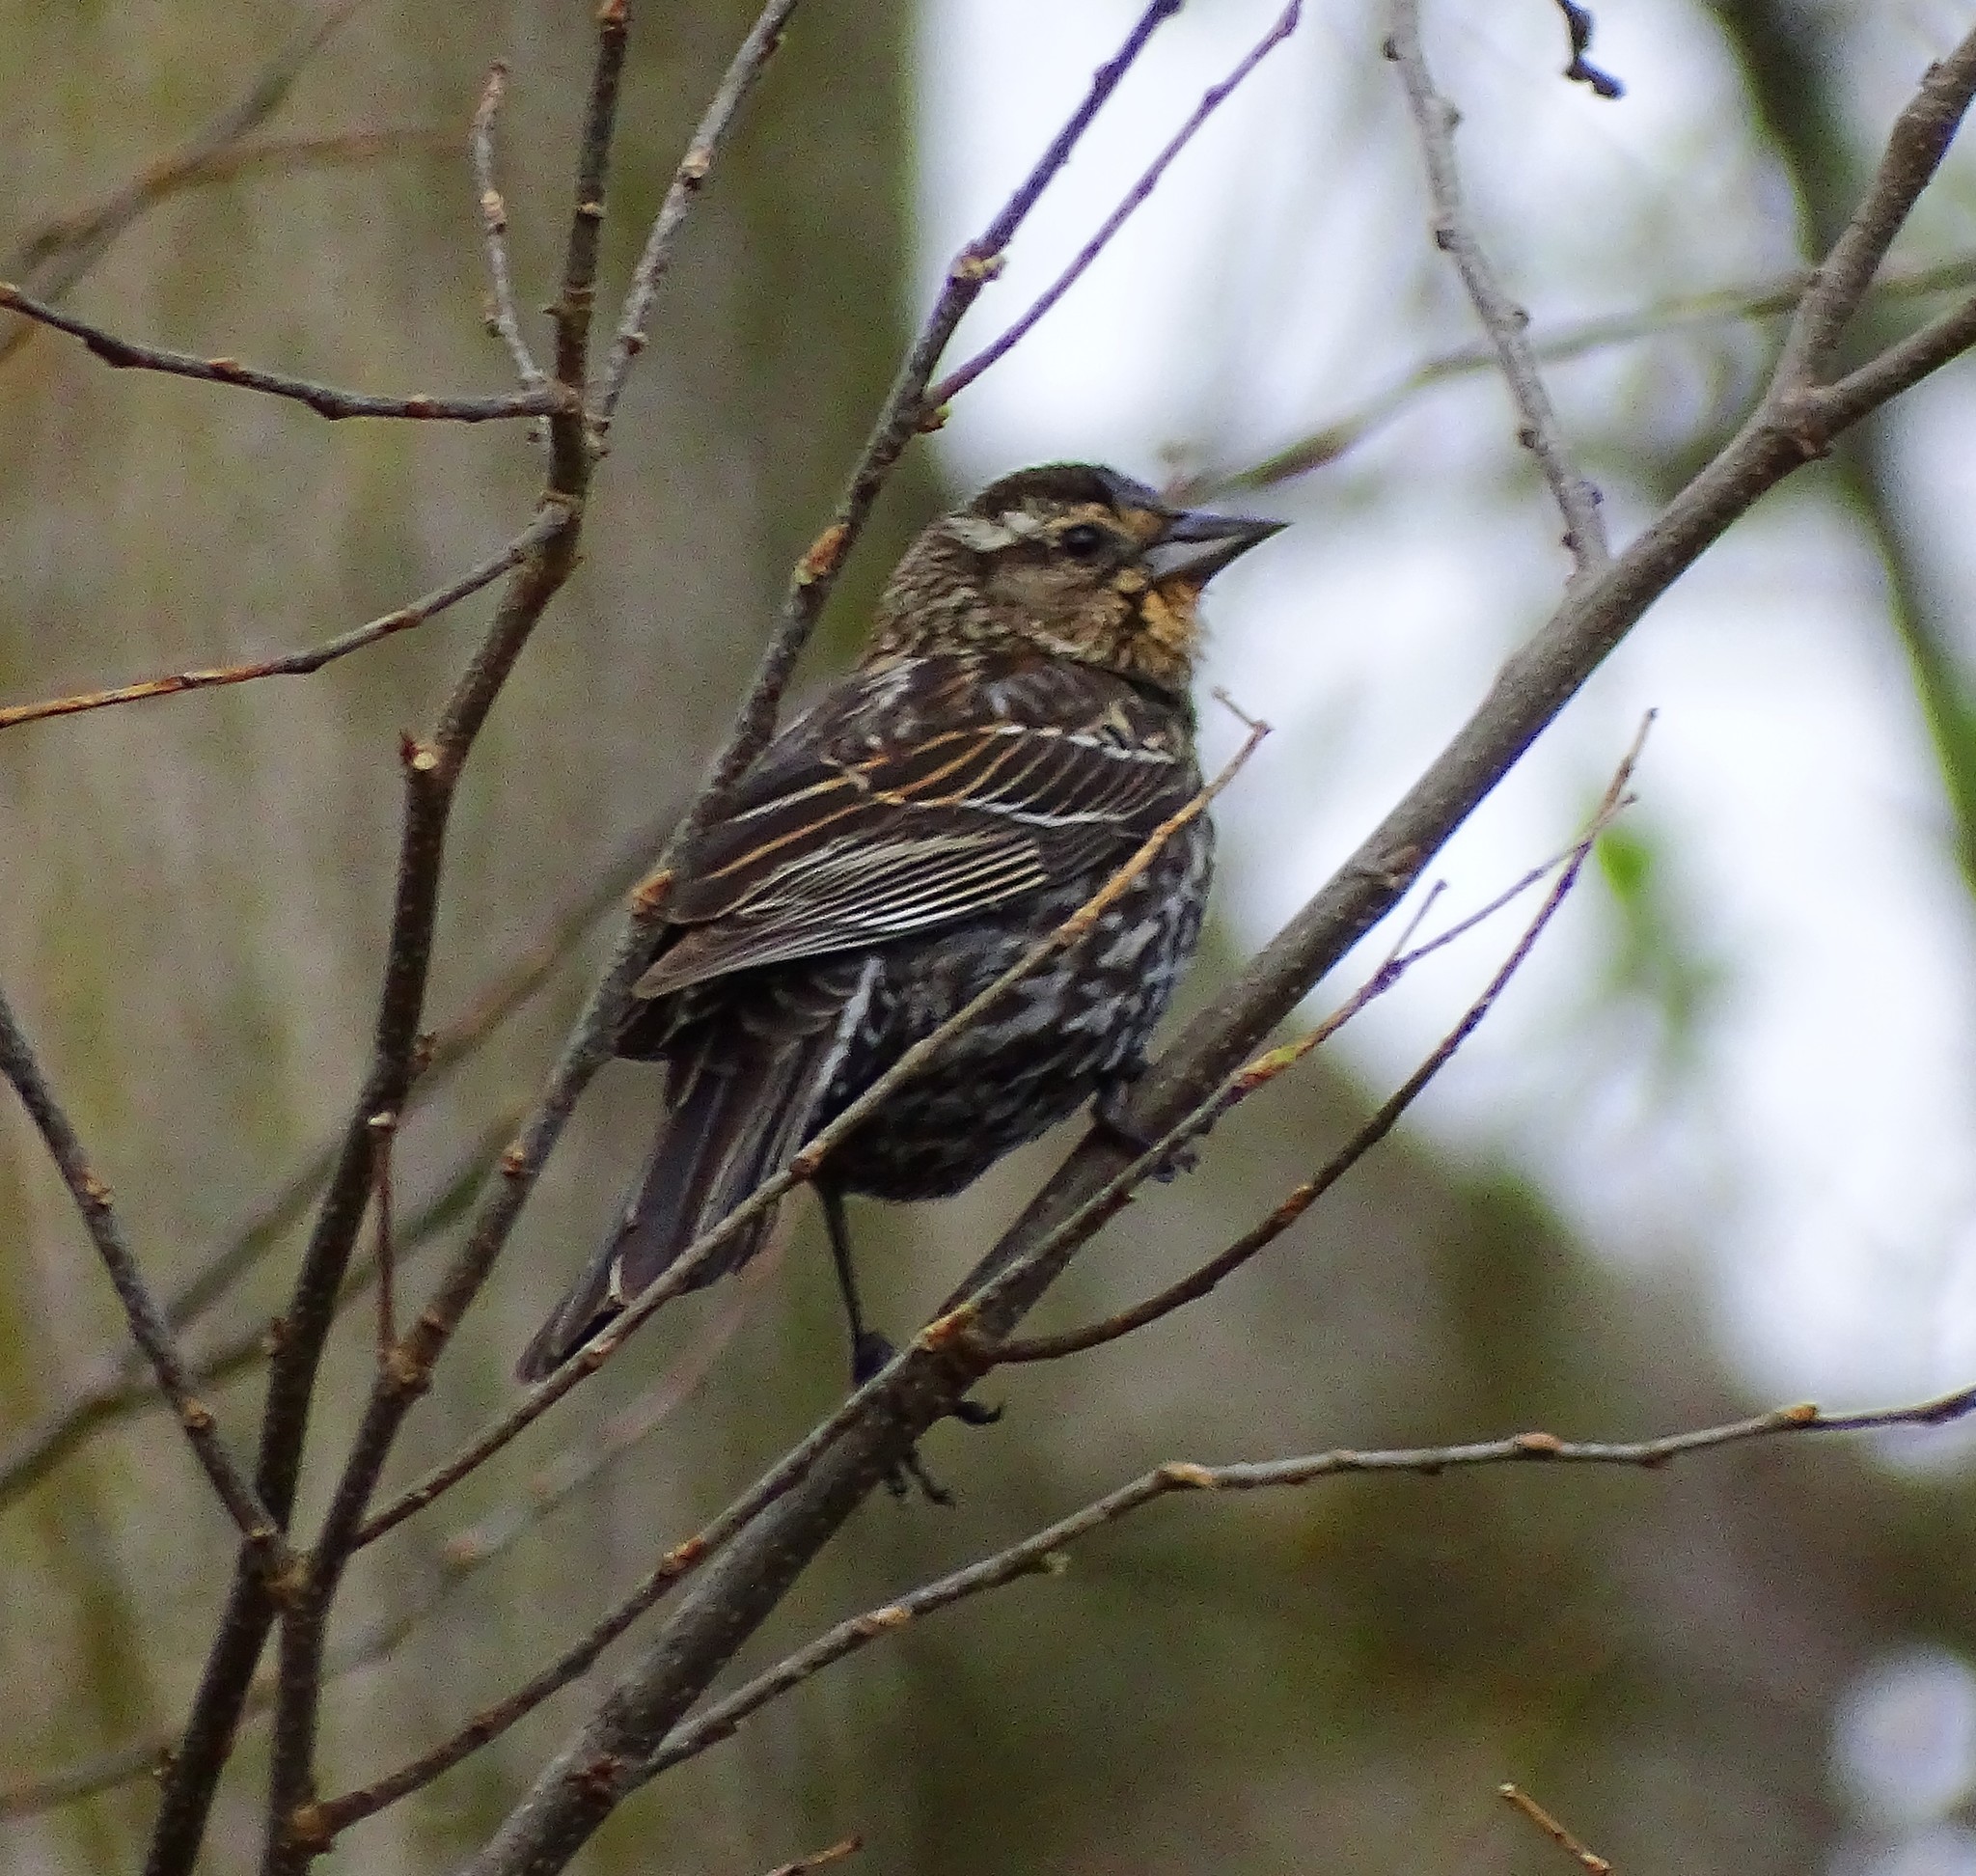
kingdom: Animalia
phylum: Chordata
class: Aves
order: Passeriformes
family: Icteridae
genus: Agelaius
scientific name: Agelaius phoeniceus
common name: Red-winged blackbird
